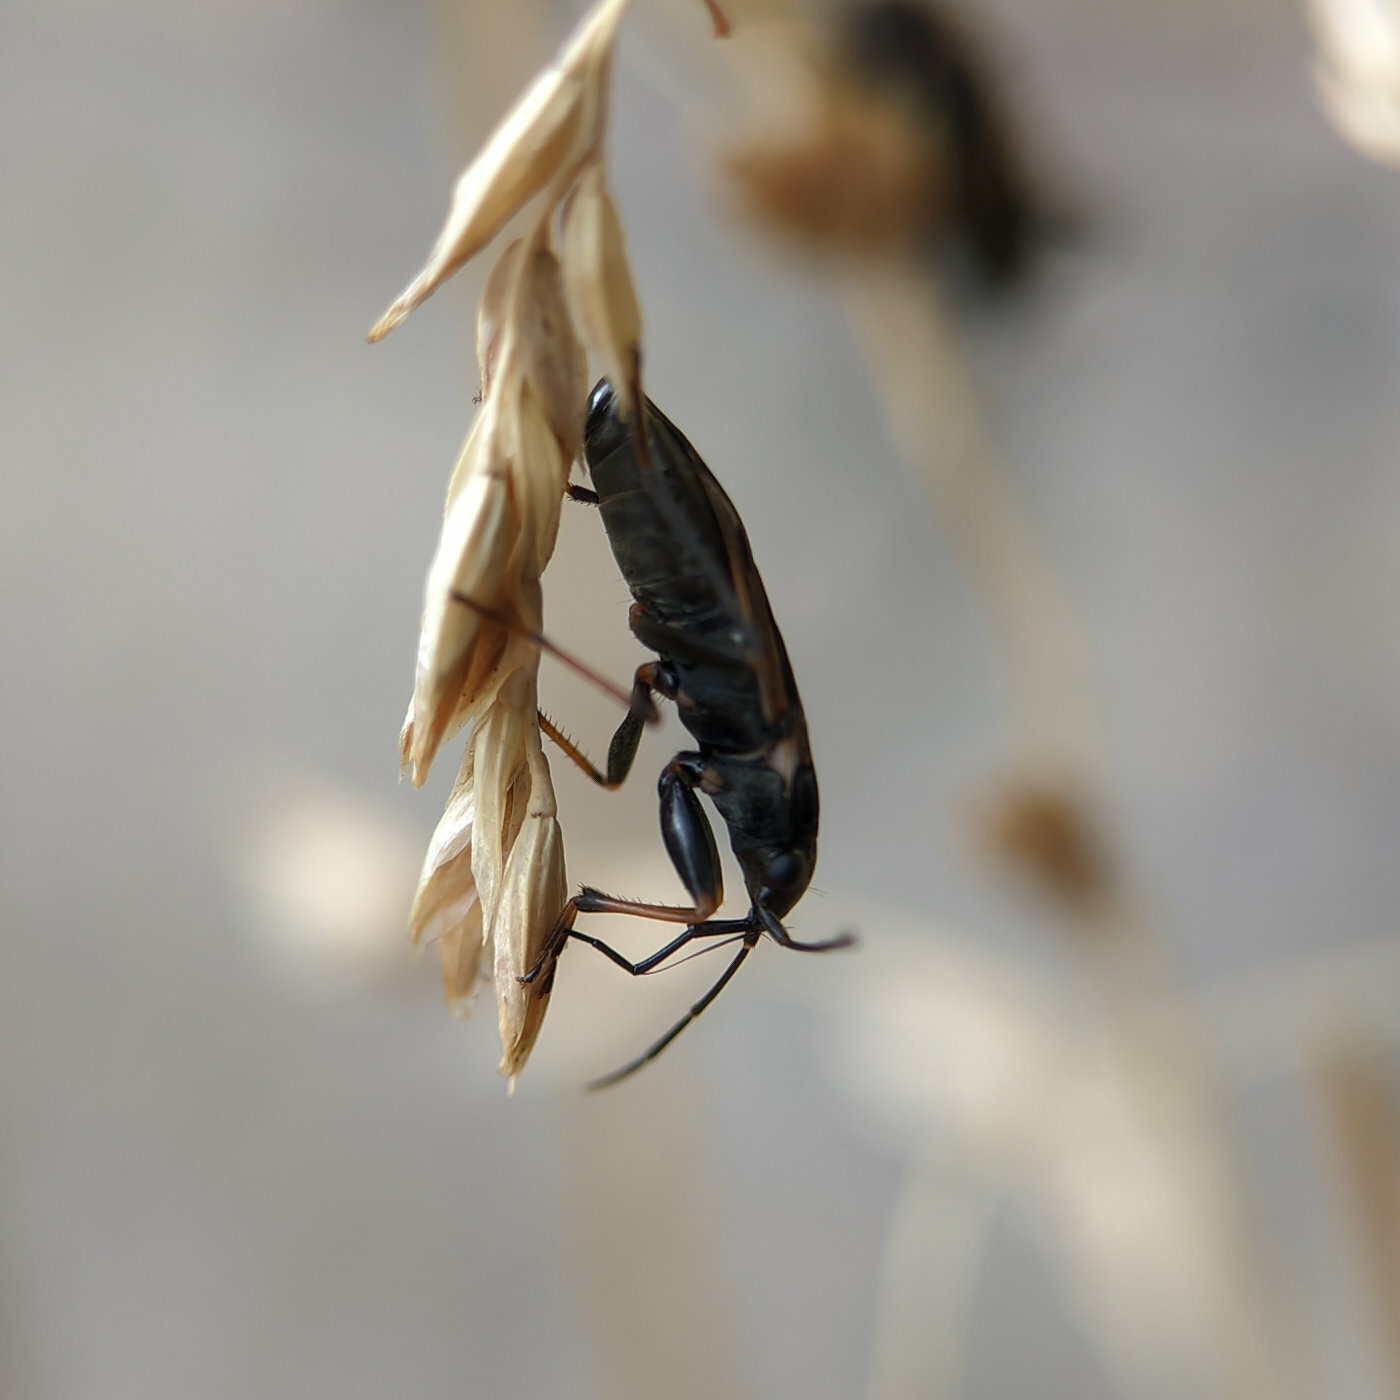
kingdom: Animalia
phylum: Arthropoda
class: Insecta
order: Hemiptera
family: Rhyparochromidae
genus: Rhyparochromus
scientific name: Rhyparochromus vulgaris
